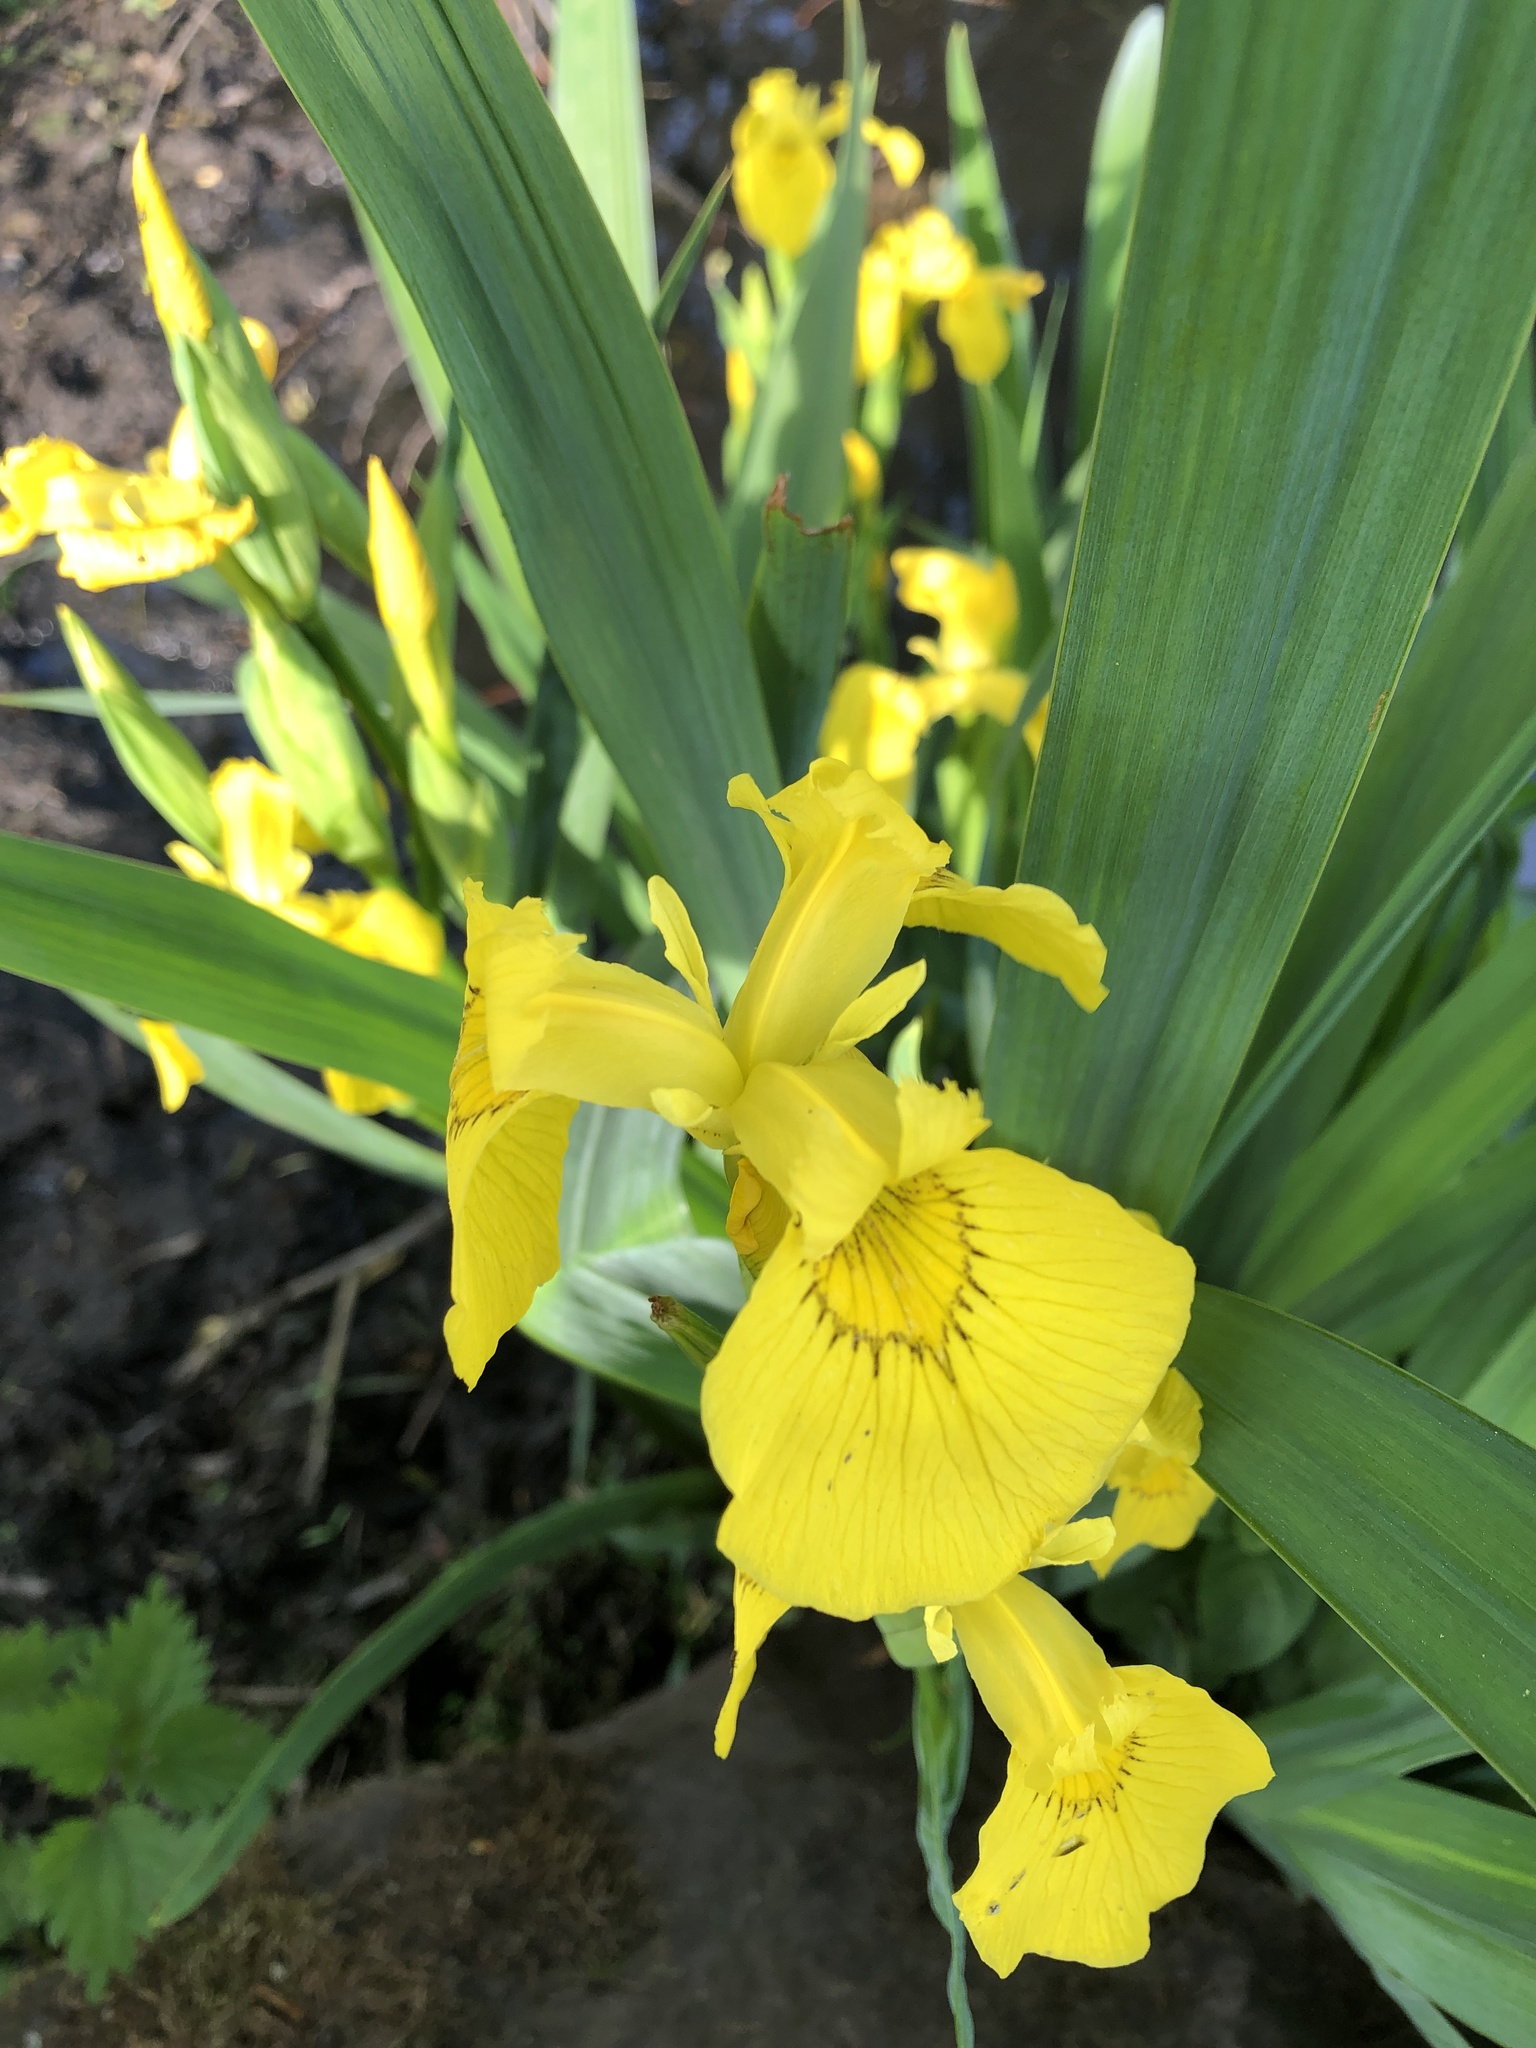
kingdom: Plantae
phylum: Tracheophyta
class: Liliopsida
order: Asparagales
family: Iridaceae
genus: Iris
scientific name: Iris pseudacorus
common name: Yellow flag
